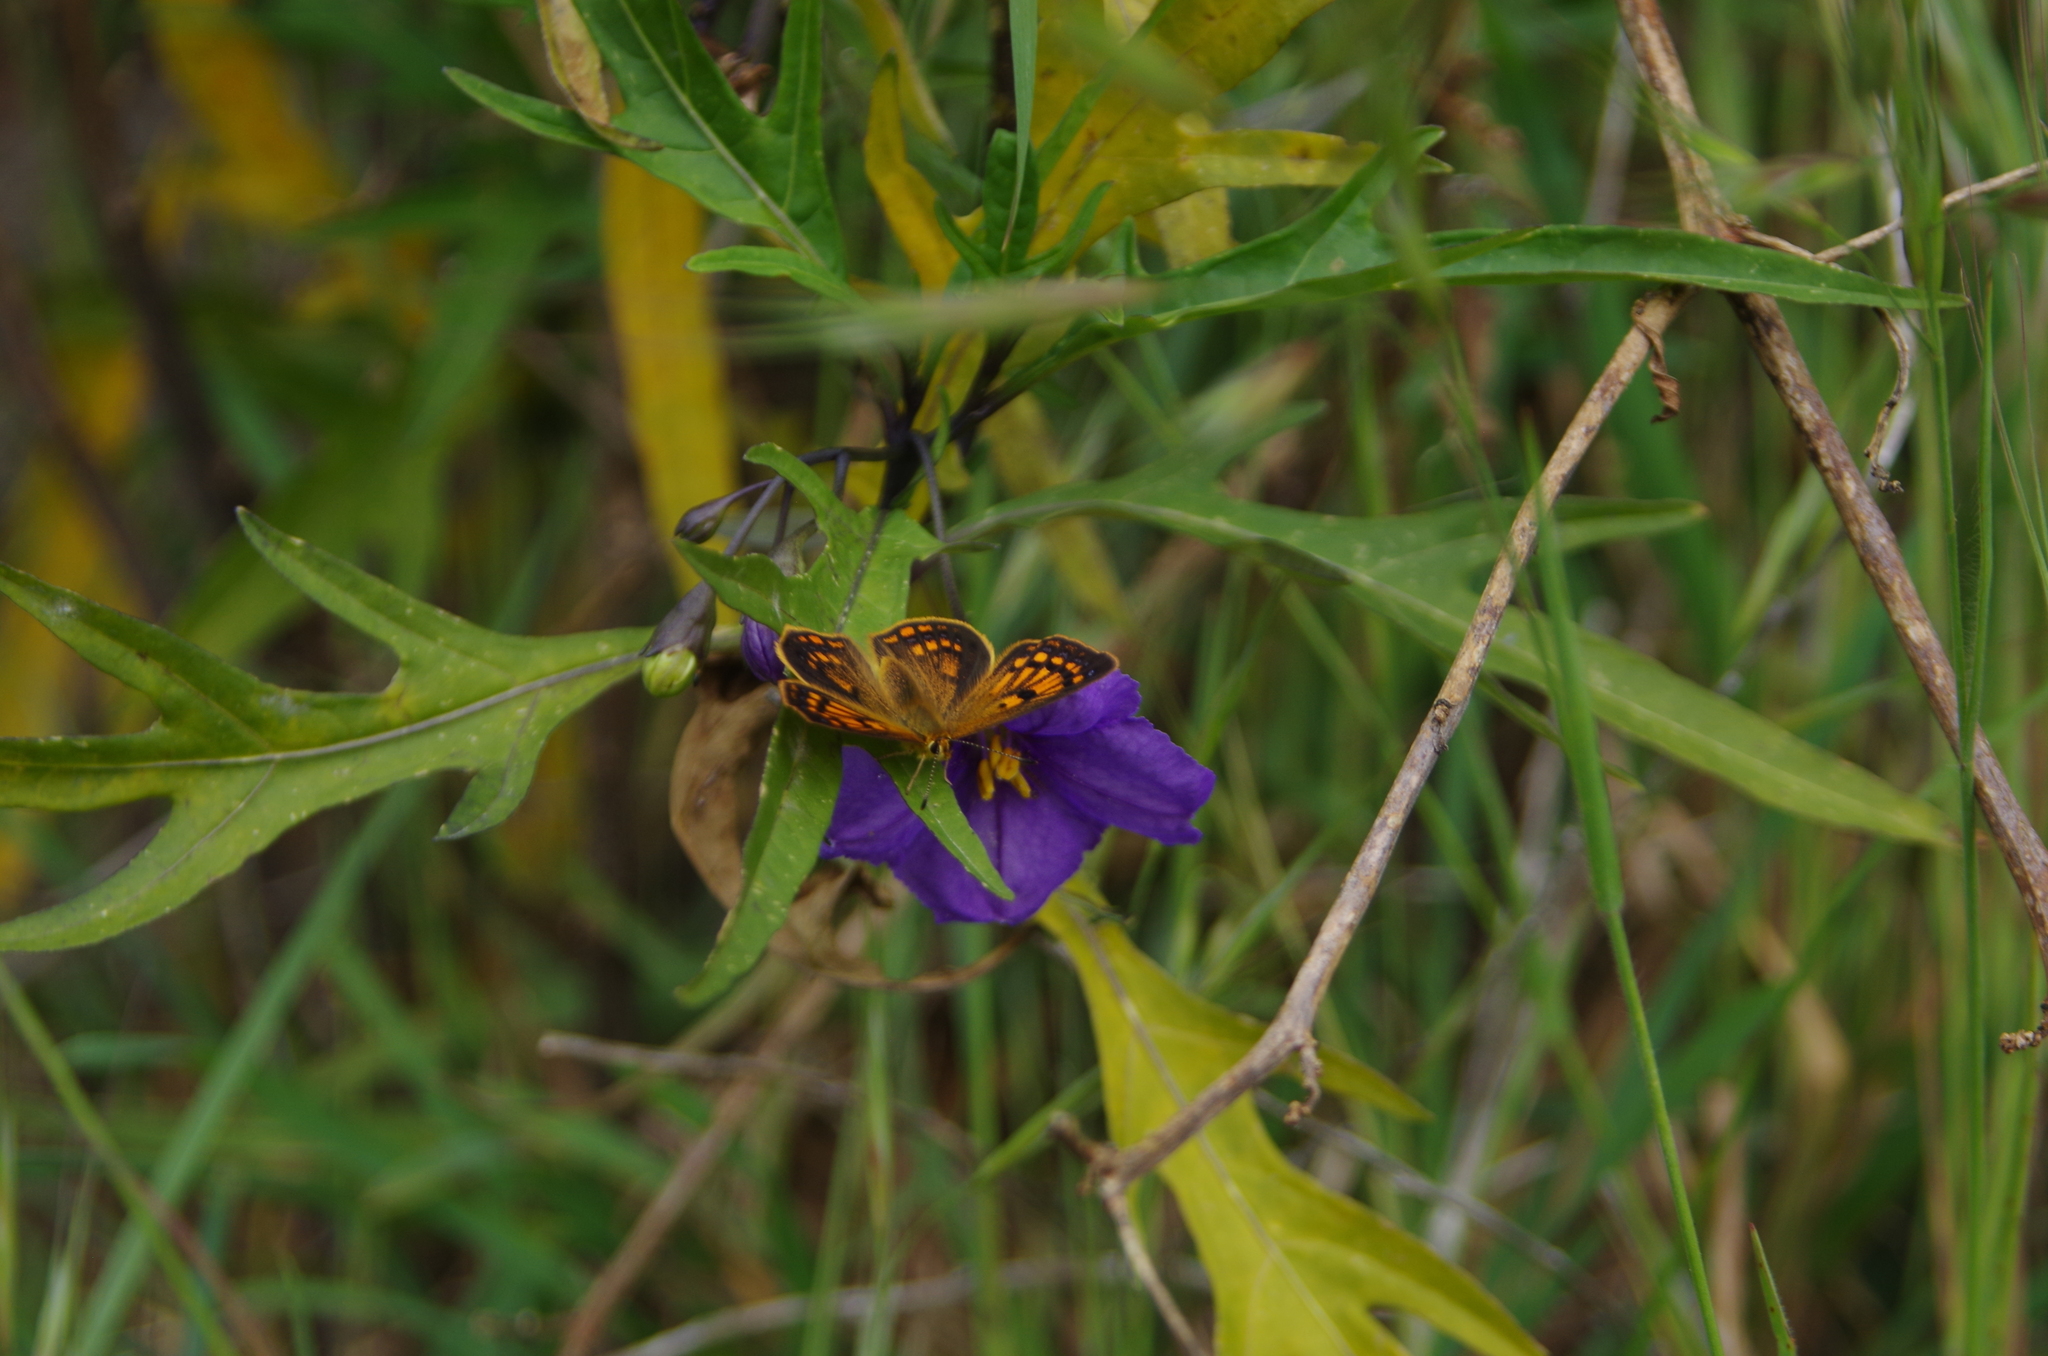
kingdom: Animalia
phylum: Arthropoda
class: Insecta
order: Lepidoptera
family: Lycaenidae
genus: Lycaena
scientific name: Lycaena
